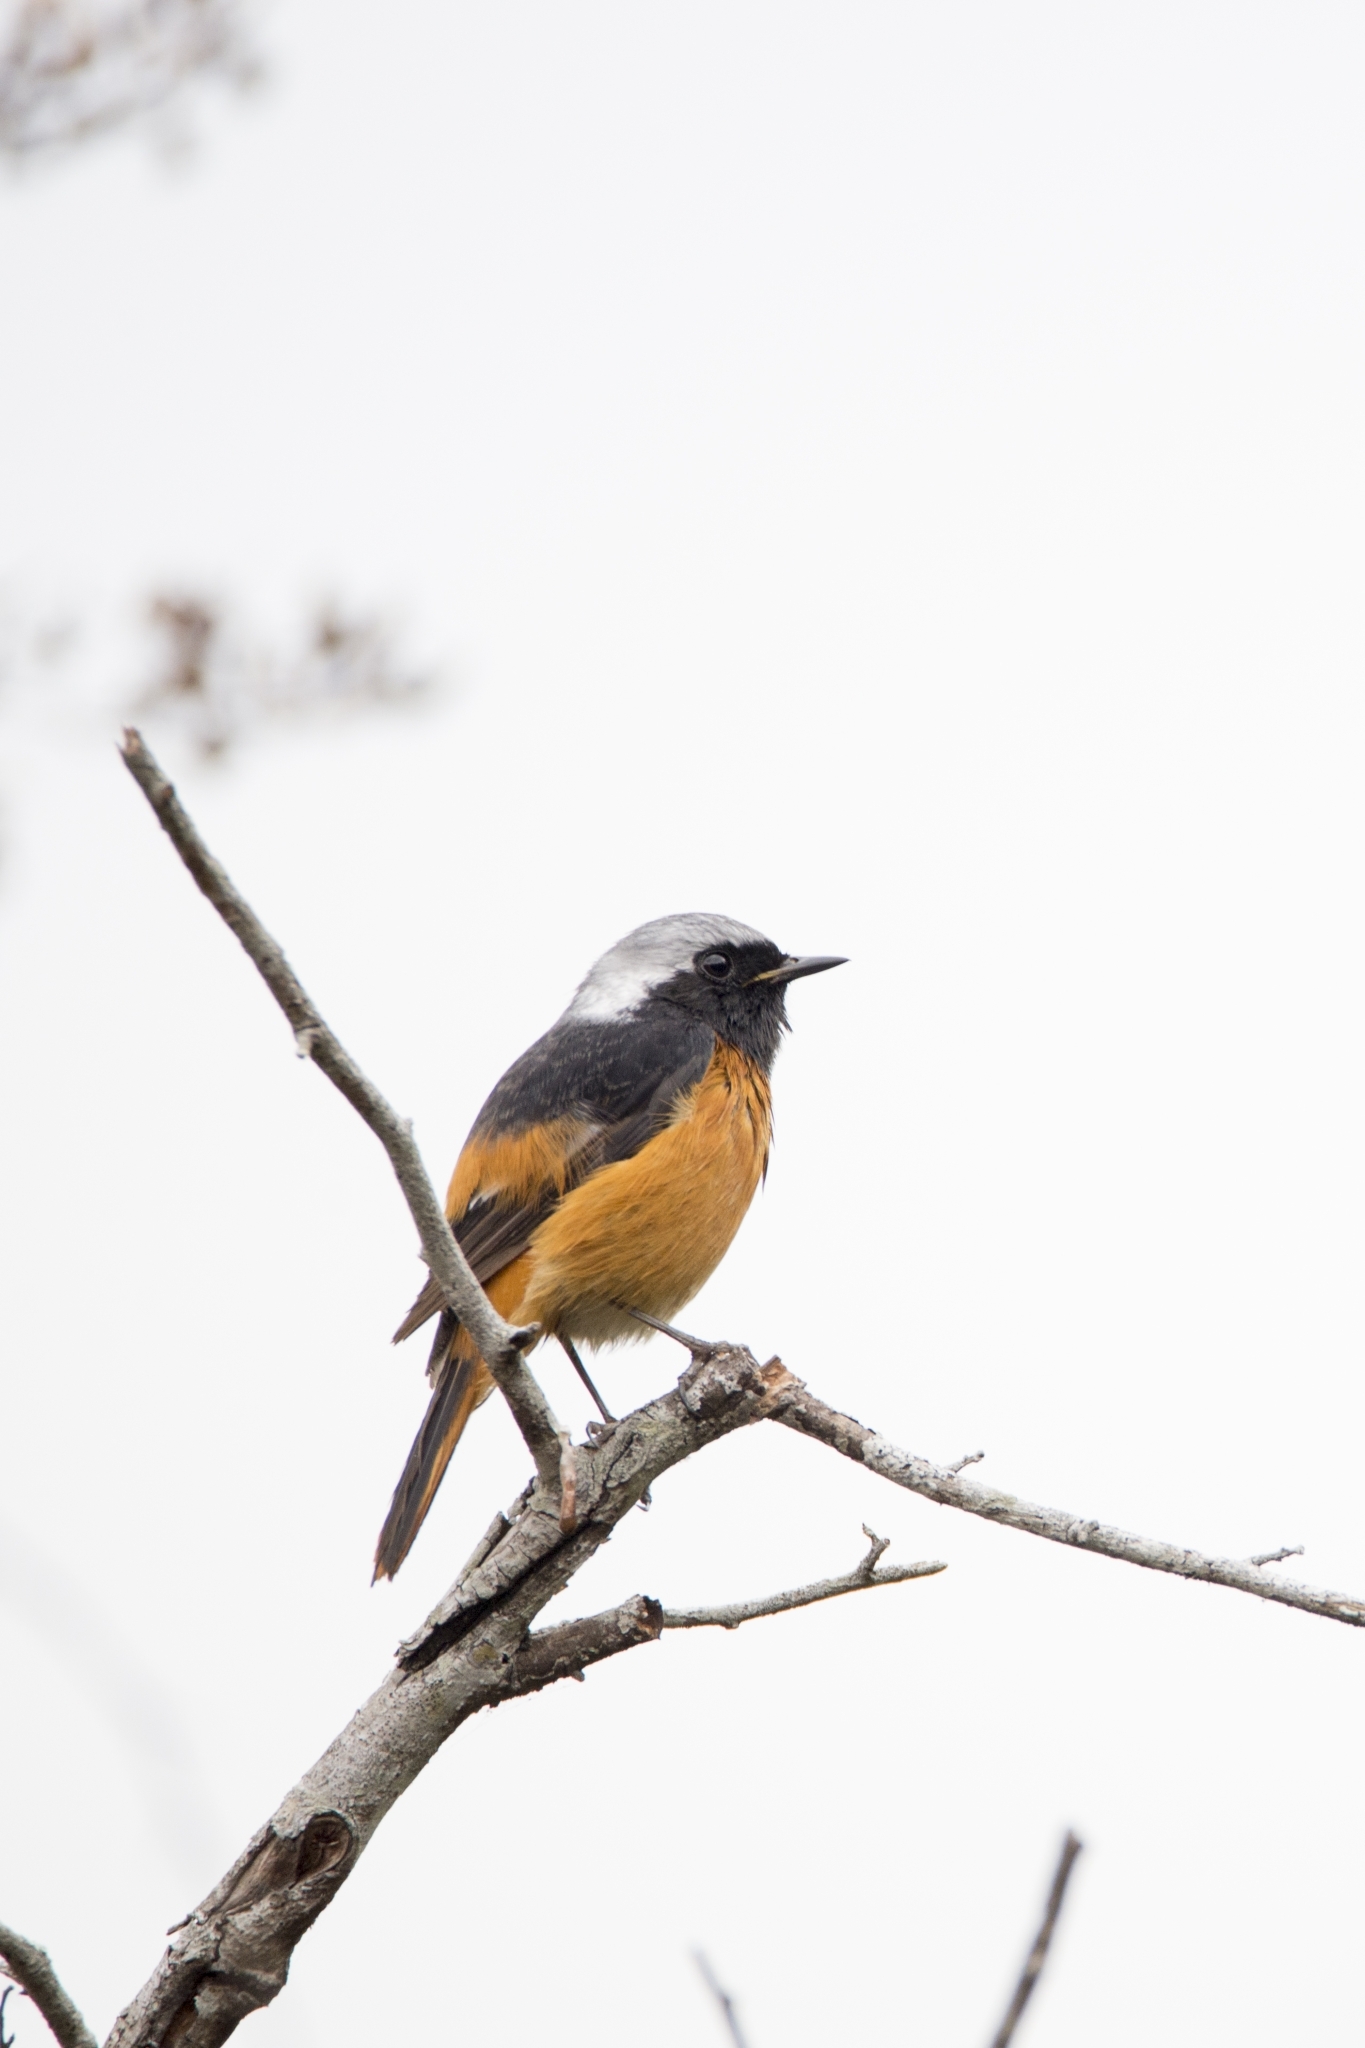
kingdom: Animalia
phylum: Chordata
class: Aves
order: Passeriformes
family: Muscicapidae
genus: Phoenicurus
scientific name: Phoenicurus auroreus
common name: Daurian redstart
